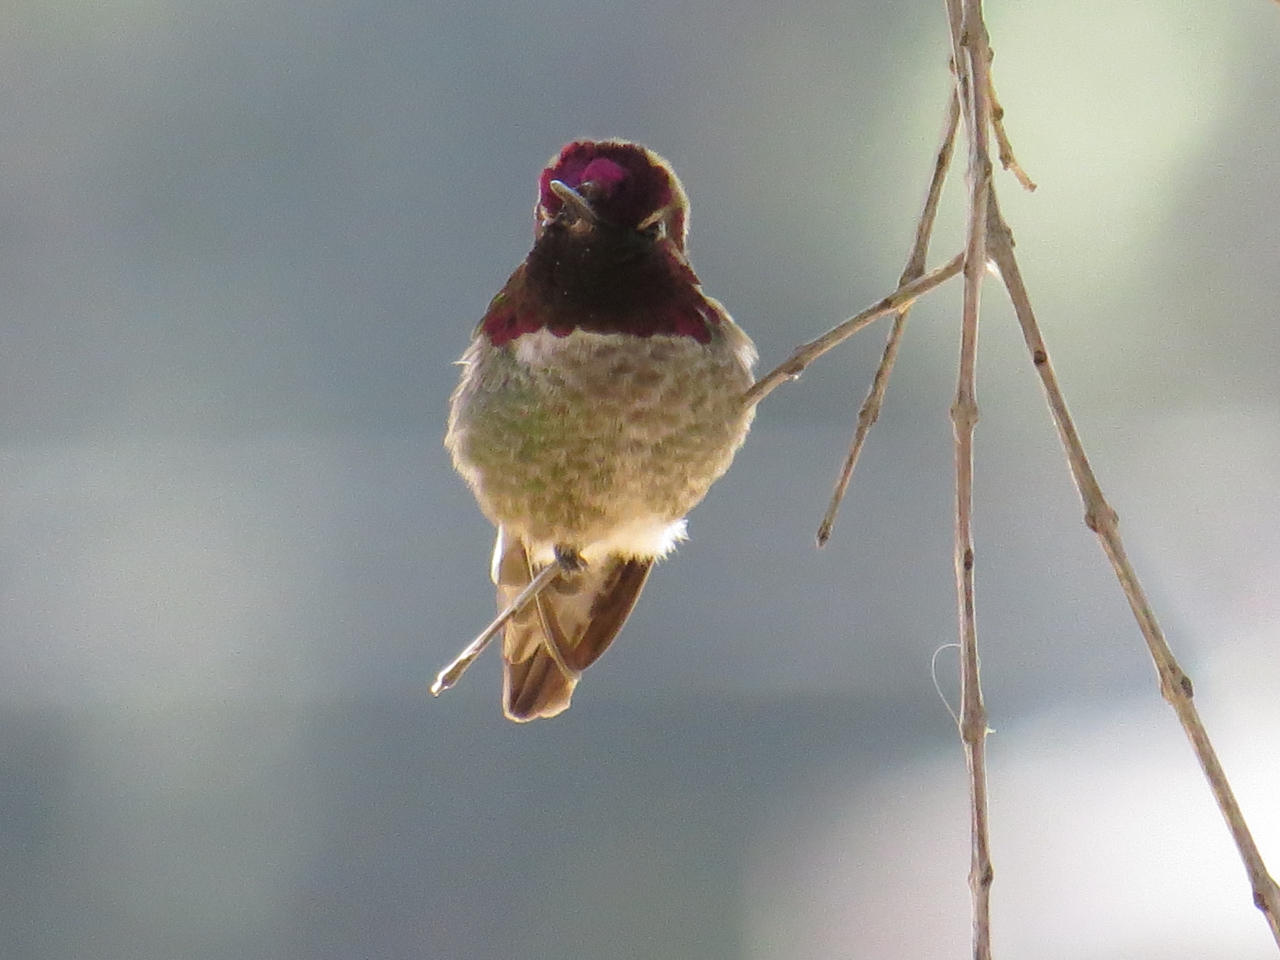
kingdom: Animalia
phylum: Chordata
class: Aves
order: Apodiformes
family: Trochilidae
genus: Calypte
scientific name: Calypte anna
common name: Anna's hummingbird
